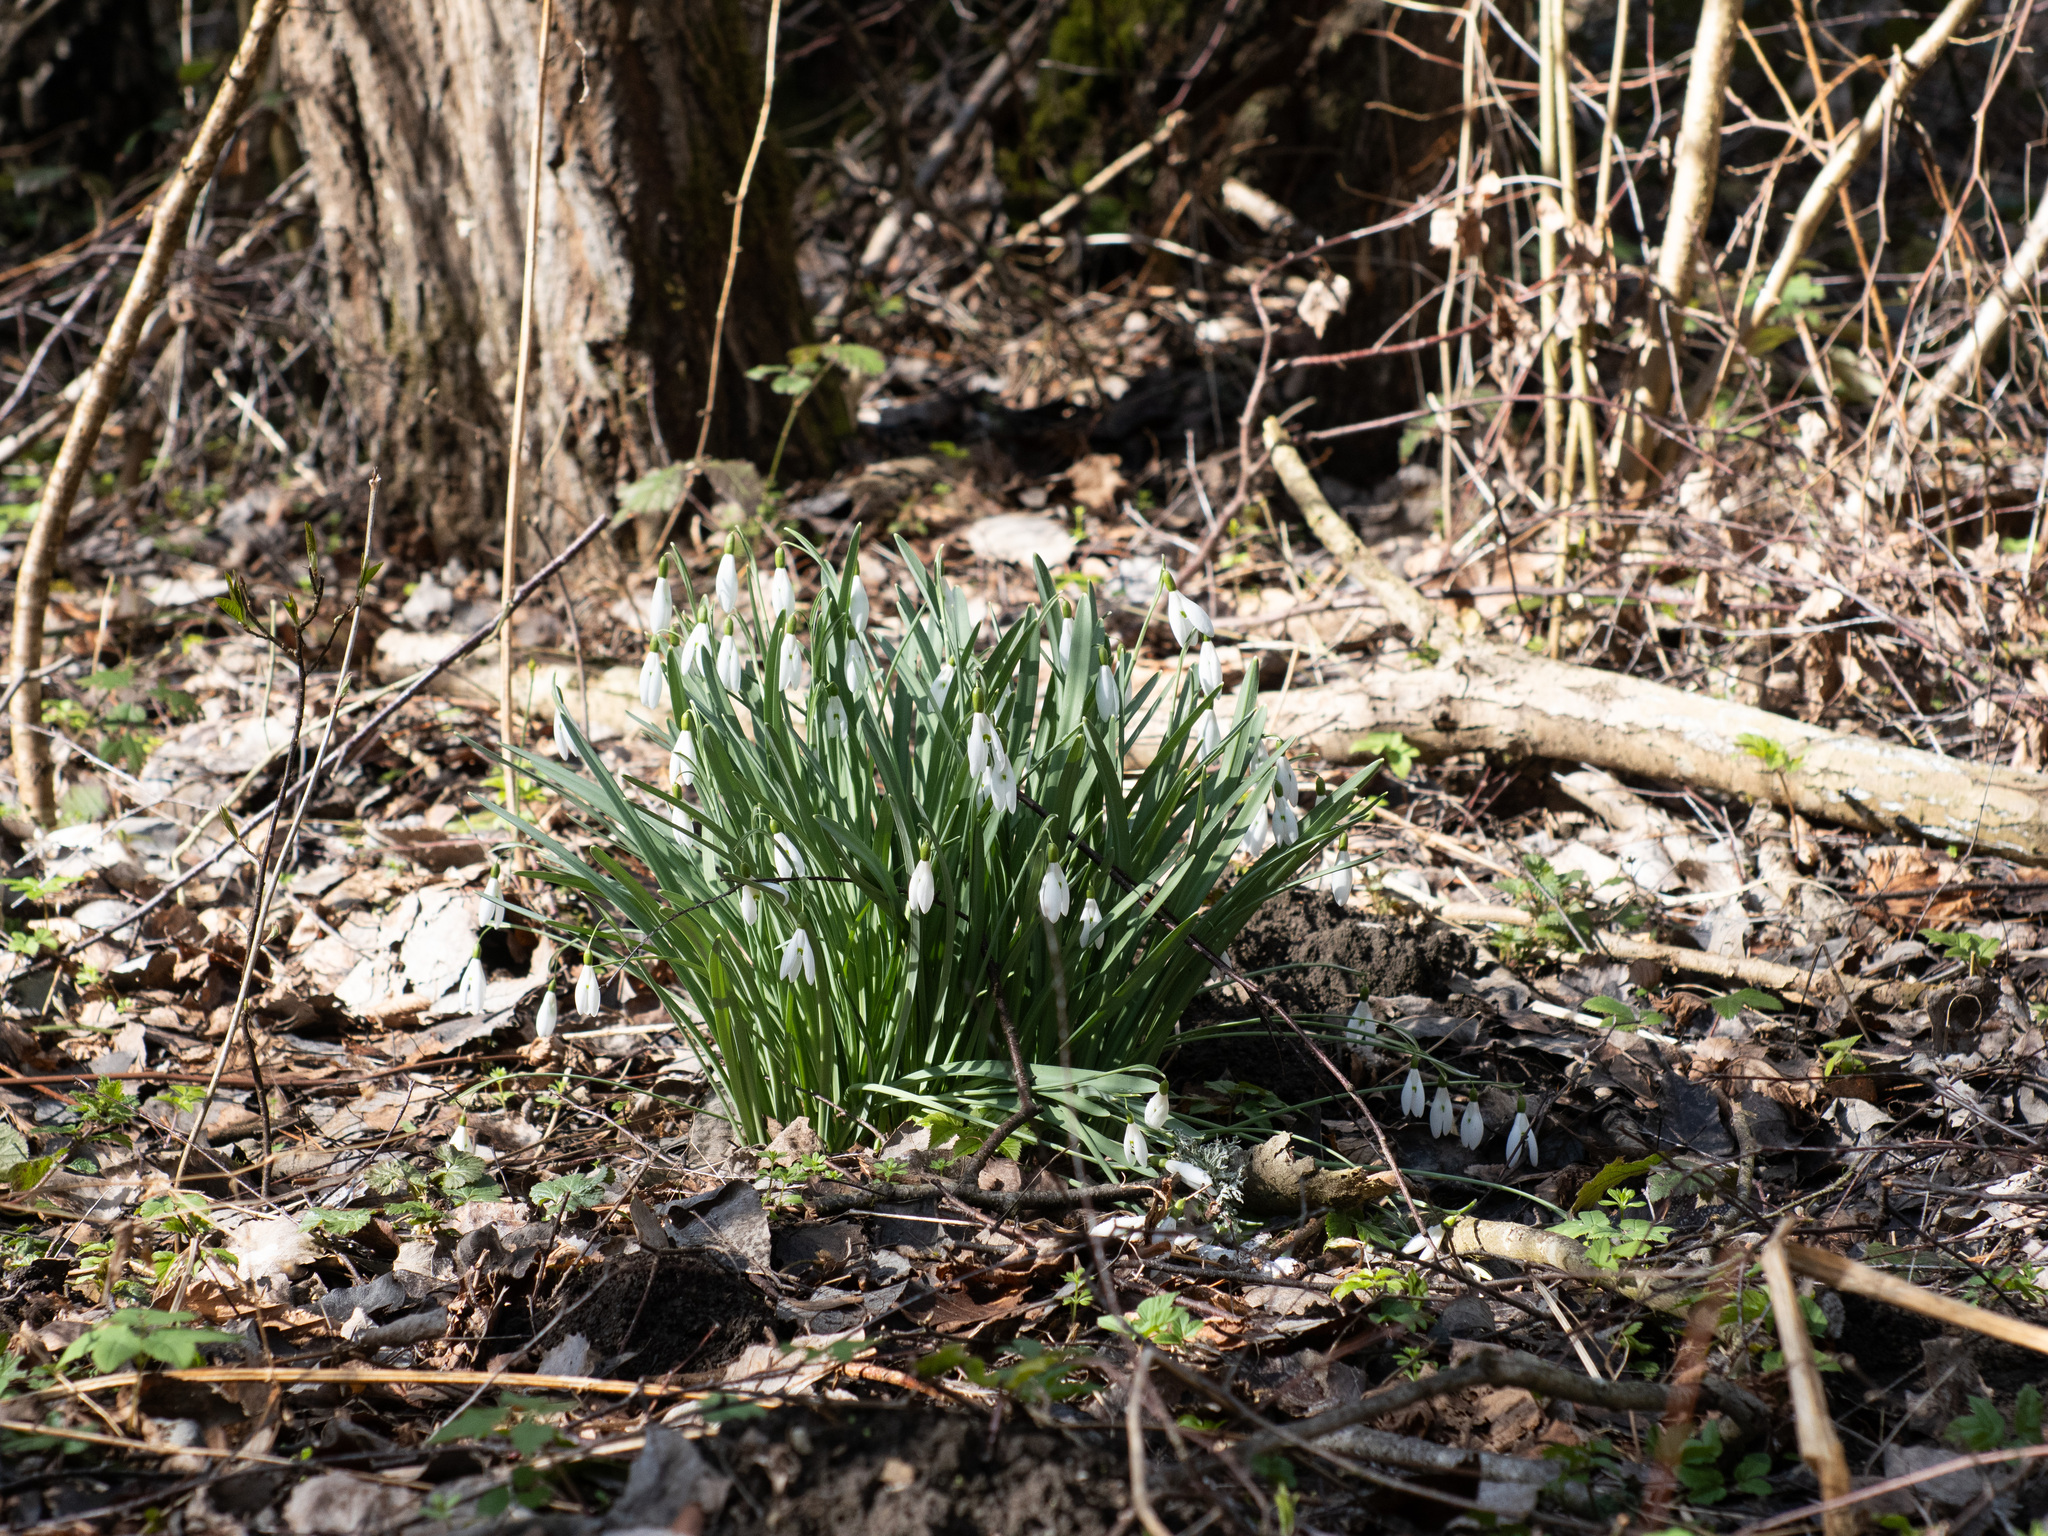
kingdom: Plantae
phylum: Tracheophyta
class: Liliopsida
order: Asparagales
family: Amaryllidaceae
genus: Galanthus
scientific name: Galanthus nivalis
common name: Snowdrop
